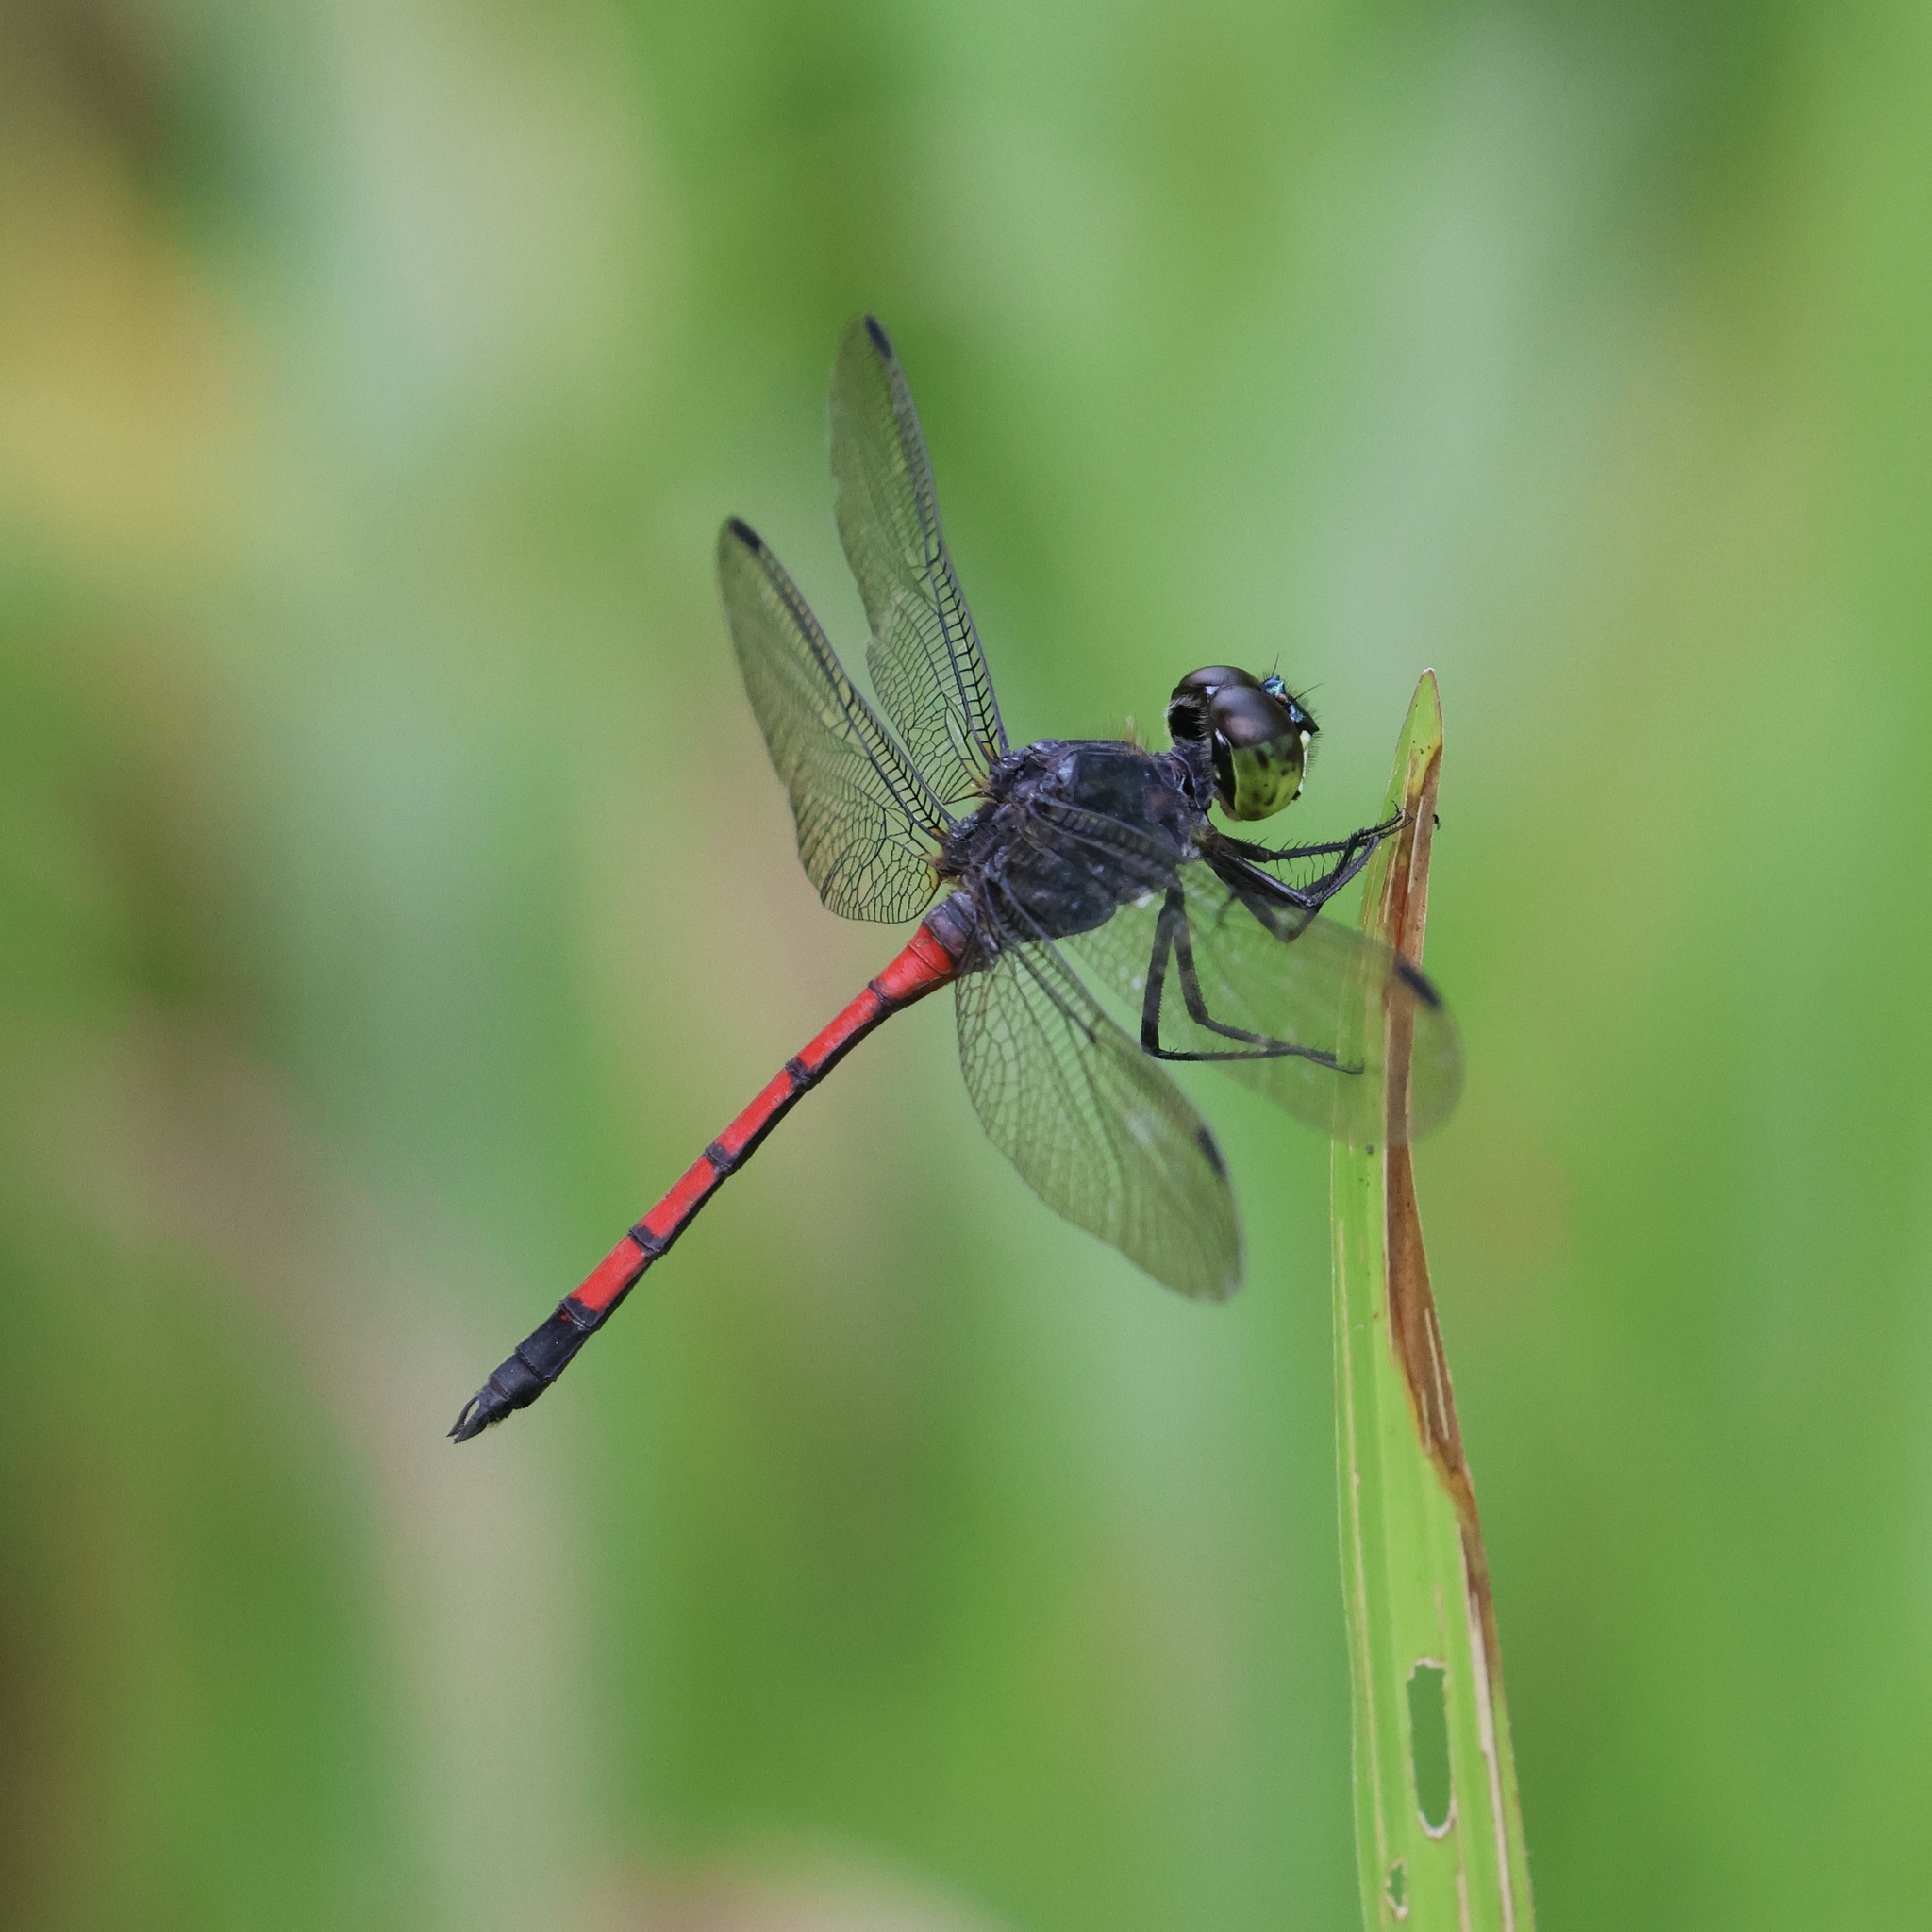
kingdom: Animalia
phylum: Arthropoda
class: Insecta
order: Odonata
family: Libellulidae
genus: Agrionoptera
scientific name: Agrionoptera insignis
